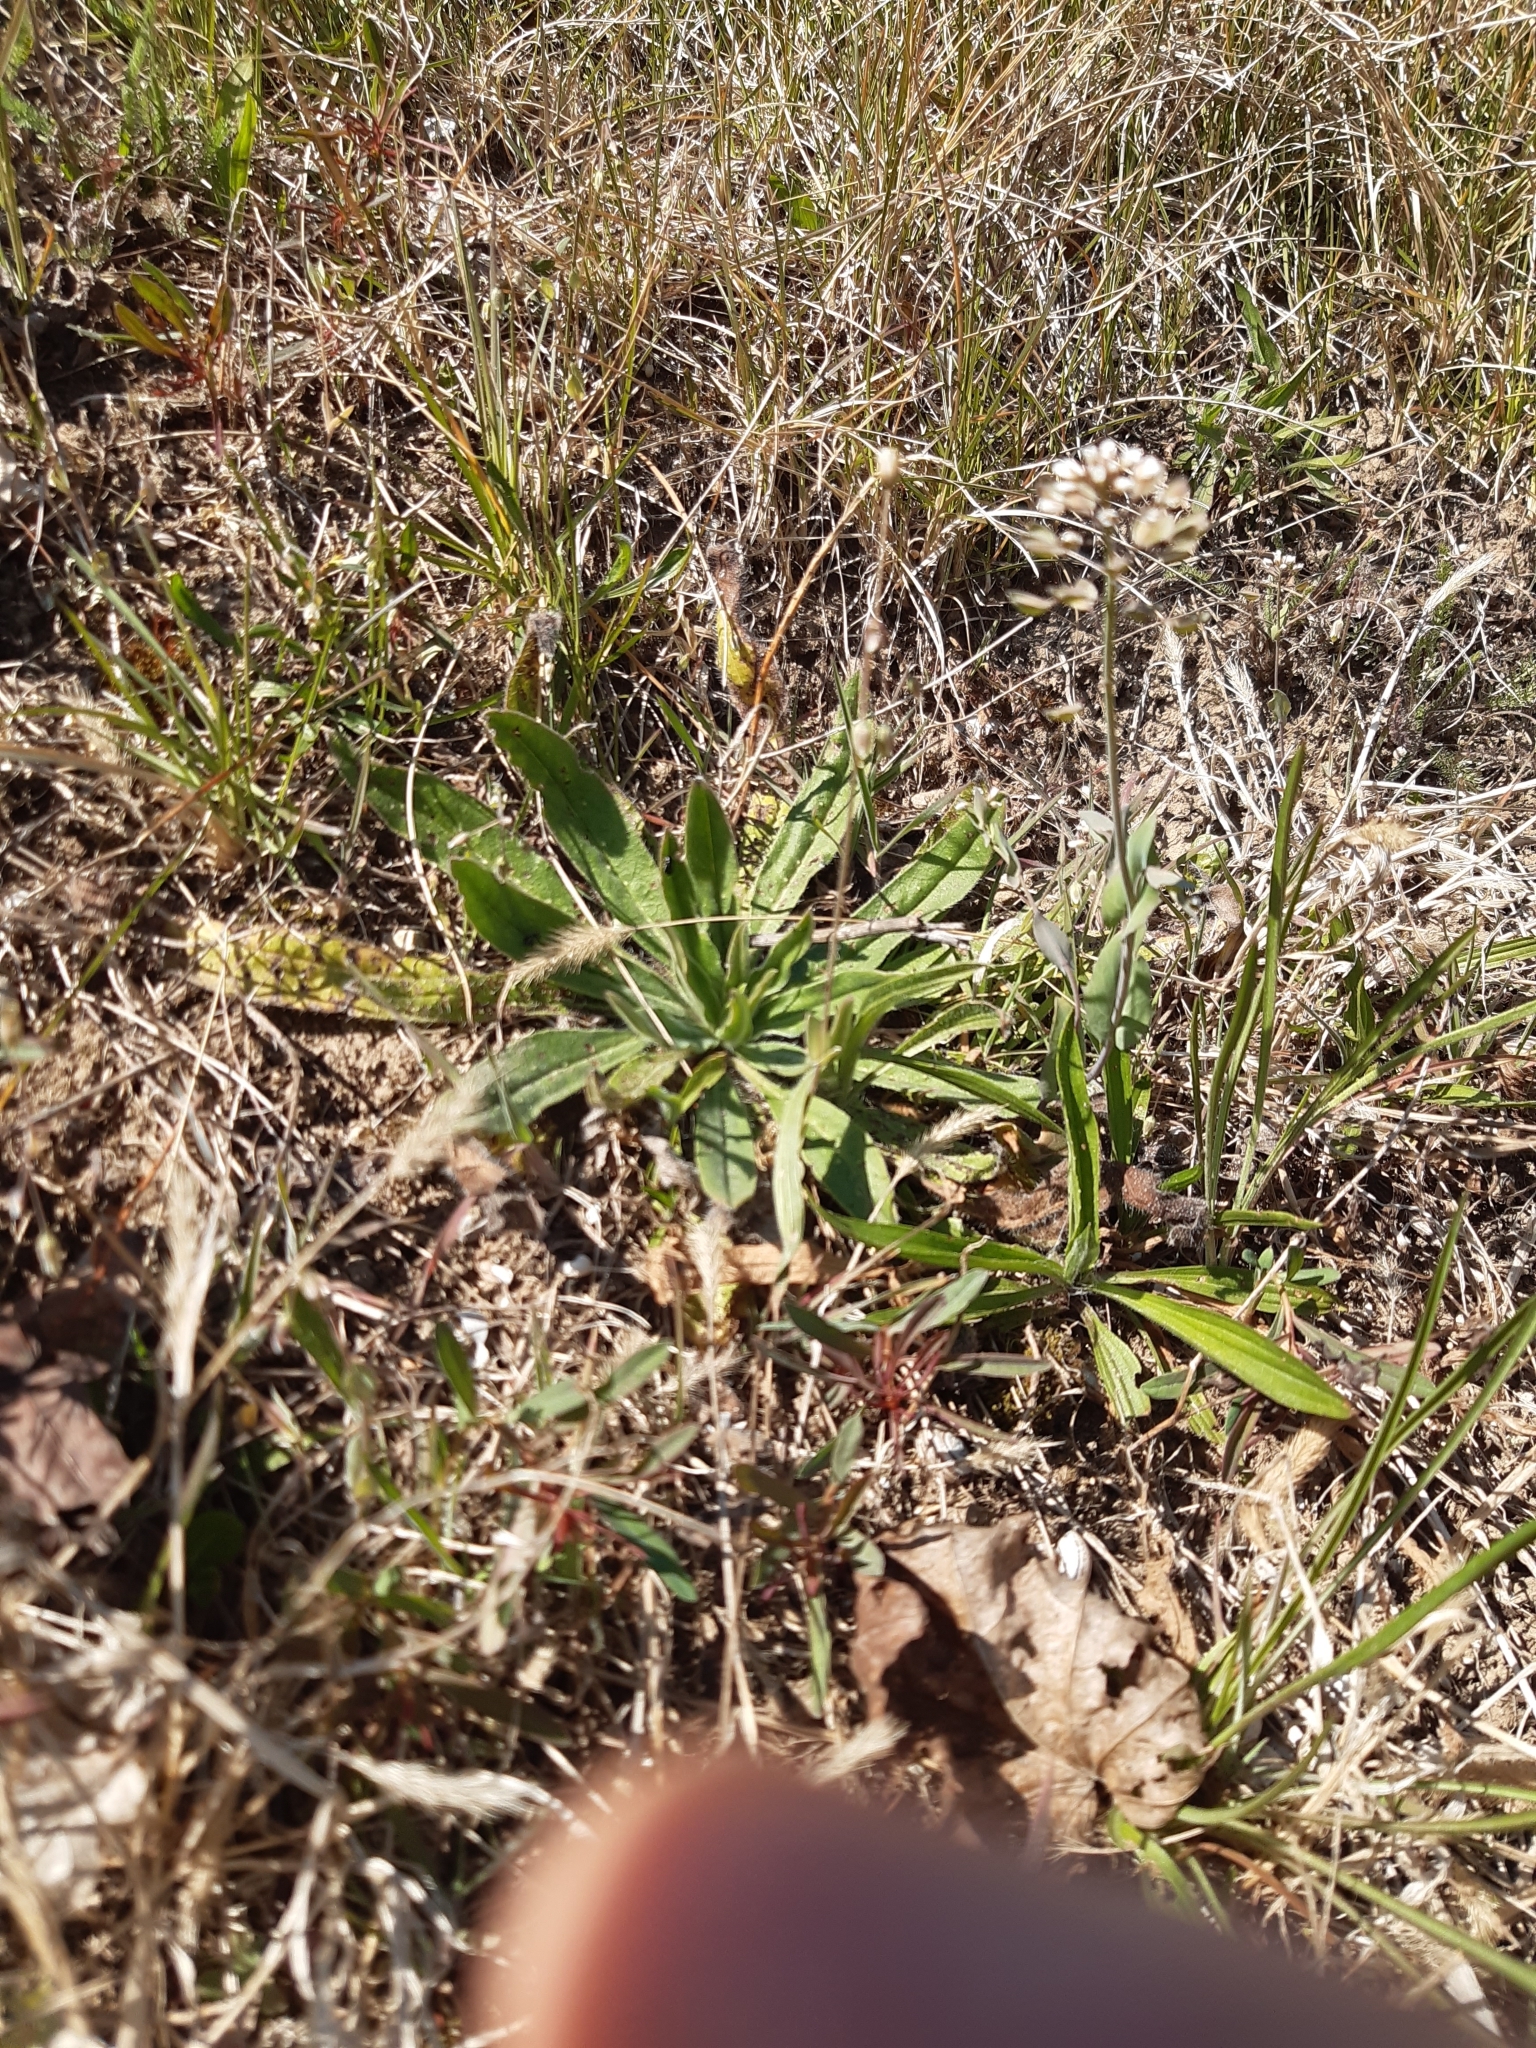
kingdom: Plantae
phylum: Tracheophyta
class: Magnoliopsida
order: Brassicales
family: Brassicaceae
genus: Noccaea
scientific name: Noccaea perfoliata
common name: Perfoliate pennycress
